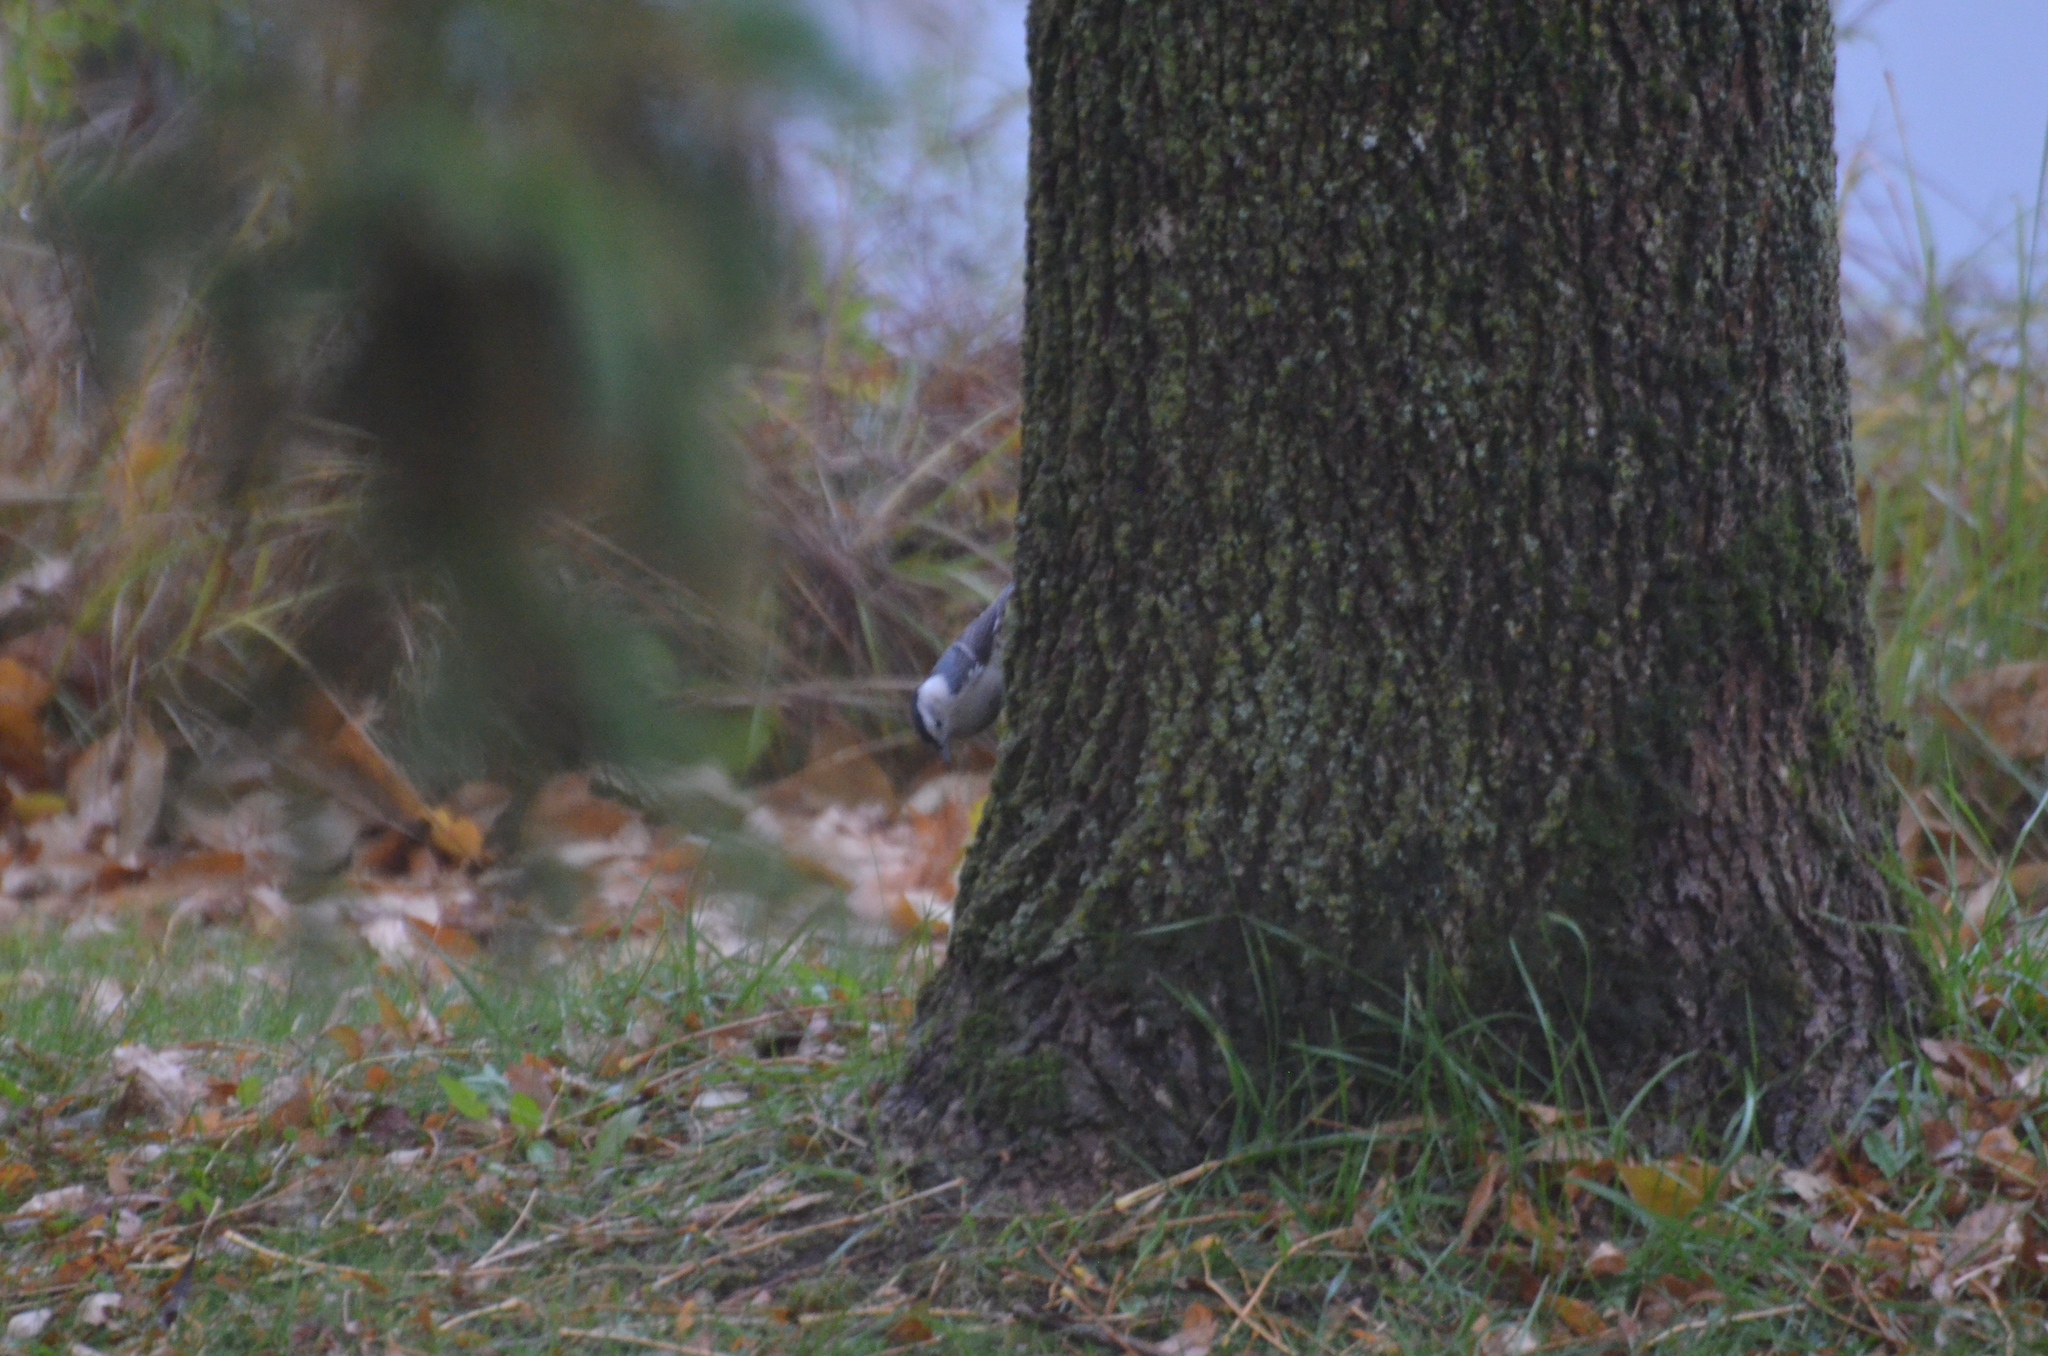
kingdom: Animalia
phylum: Chordata
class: Aves
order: Passeriformes
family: Sittidae
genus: Sitta
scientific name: Sitta carolinensis
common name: White-breasted nuthatch
